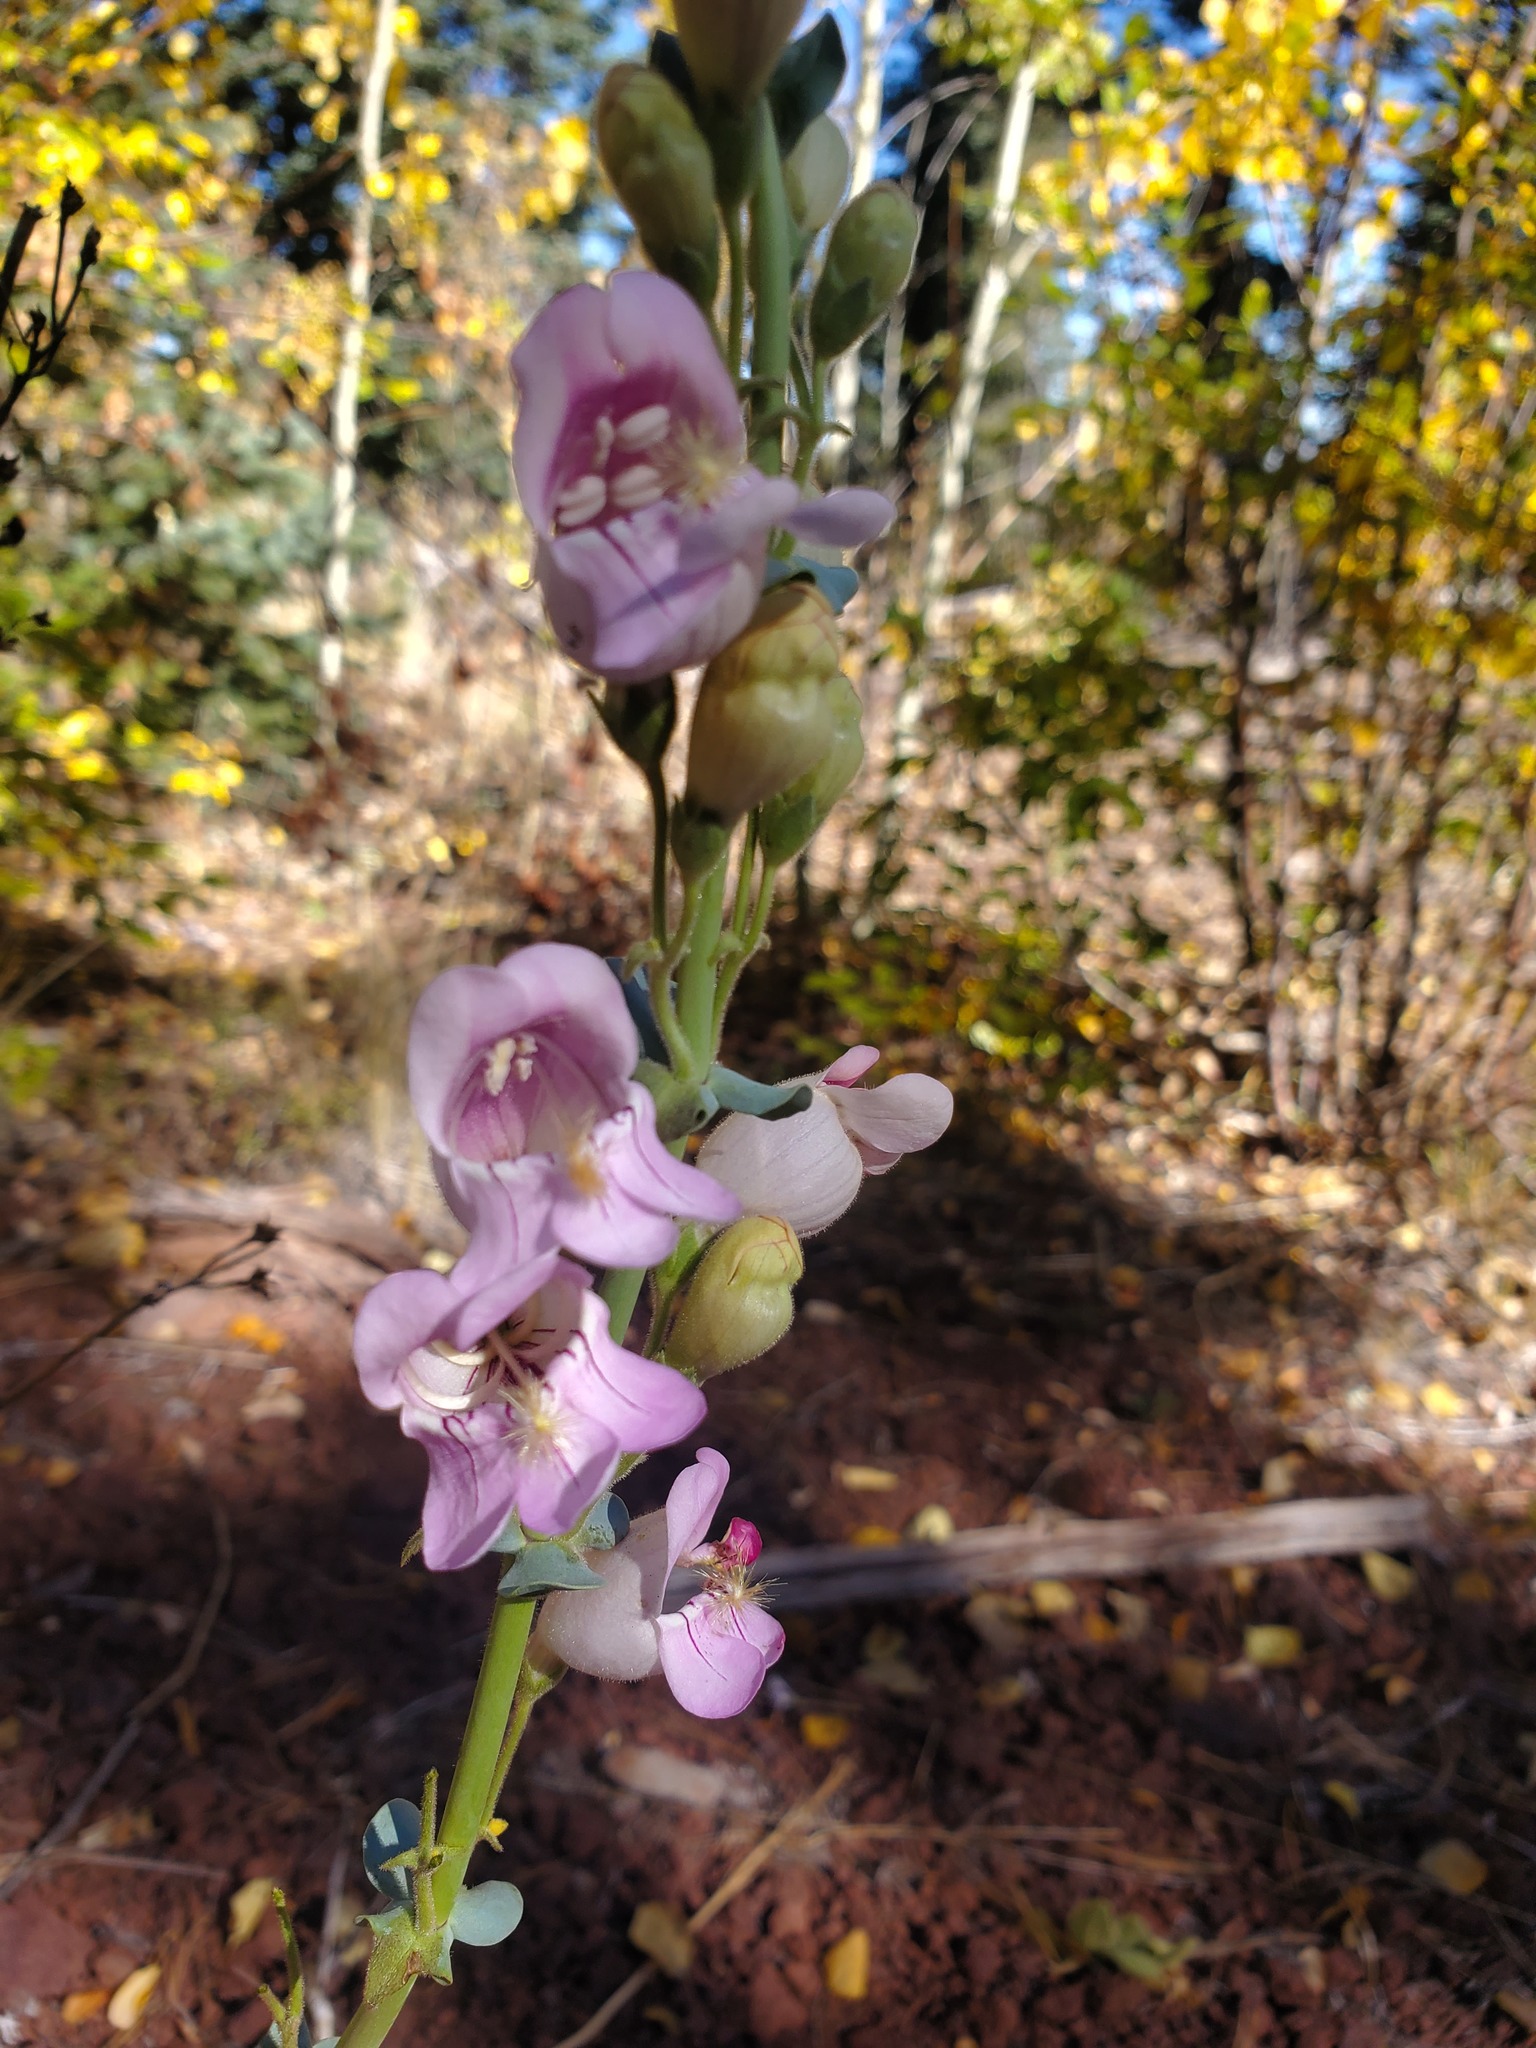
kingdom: Plantae
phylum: Tracheophyta
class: Magnoliopsida
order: Lamiales
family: Plantaginaceae
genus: Penstemon
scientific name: Penstemon palmeri
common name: Palmer penstemon
